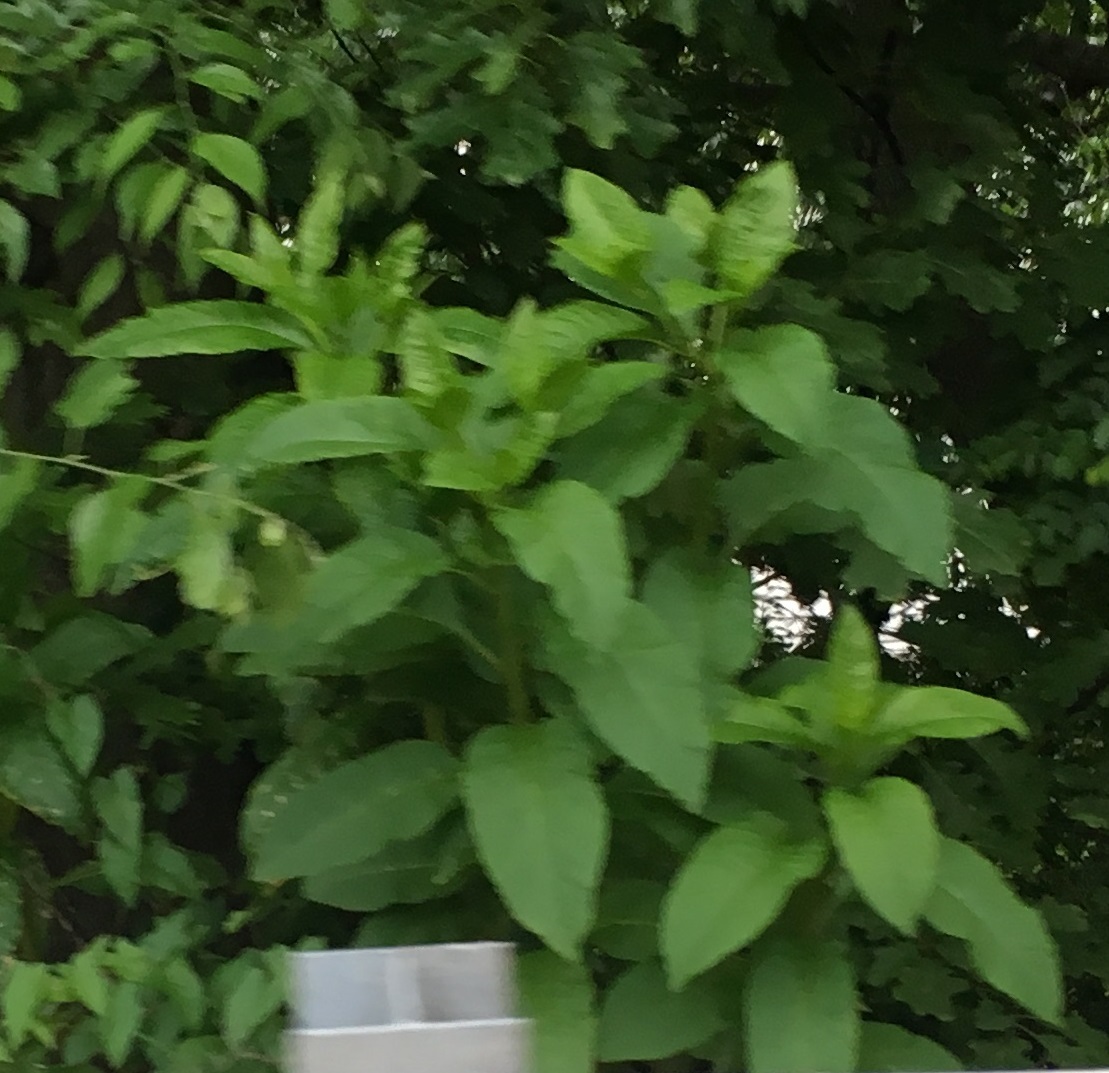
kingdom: Plantae
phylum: Tracheophyta
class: Magnoliopsida
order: Caryophyllales
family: Phytolaccaceae
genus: Phytolacca
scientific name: Phytolacca americana
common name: American pokeweed
